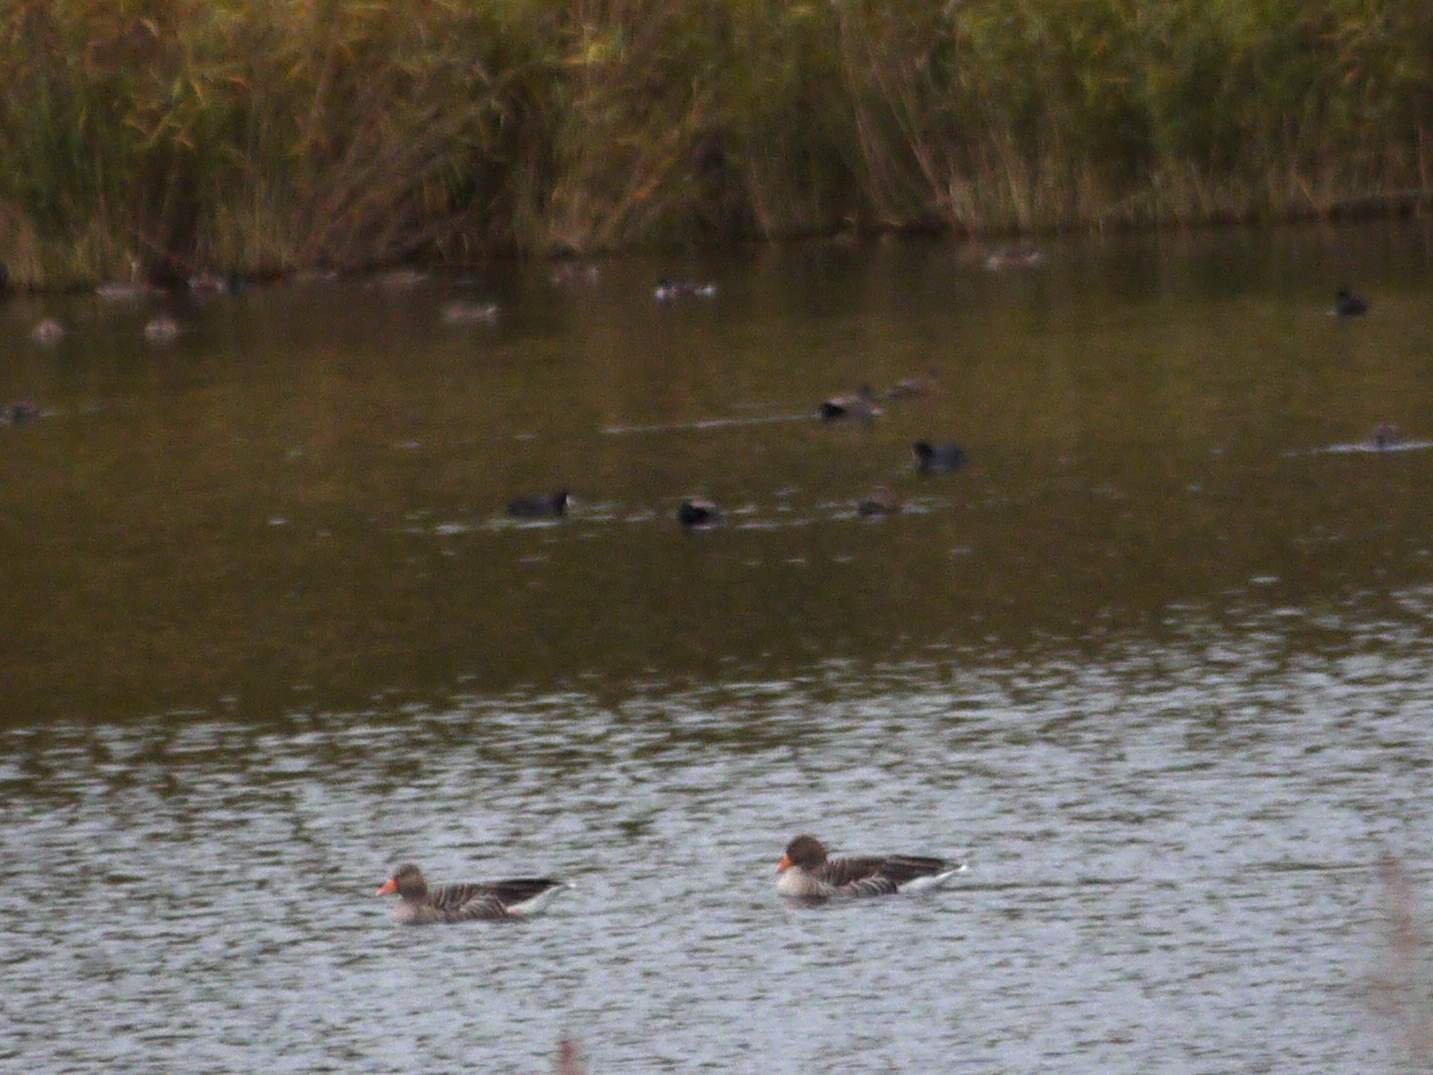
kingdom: Animalia
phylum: Chordata
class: Aves
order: Gruiformes
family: Rallidae
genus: Fulica
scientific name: Fulica atra
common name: Eurasian coot
